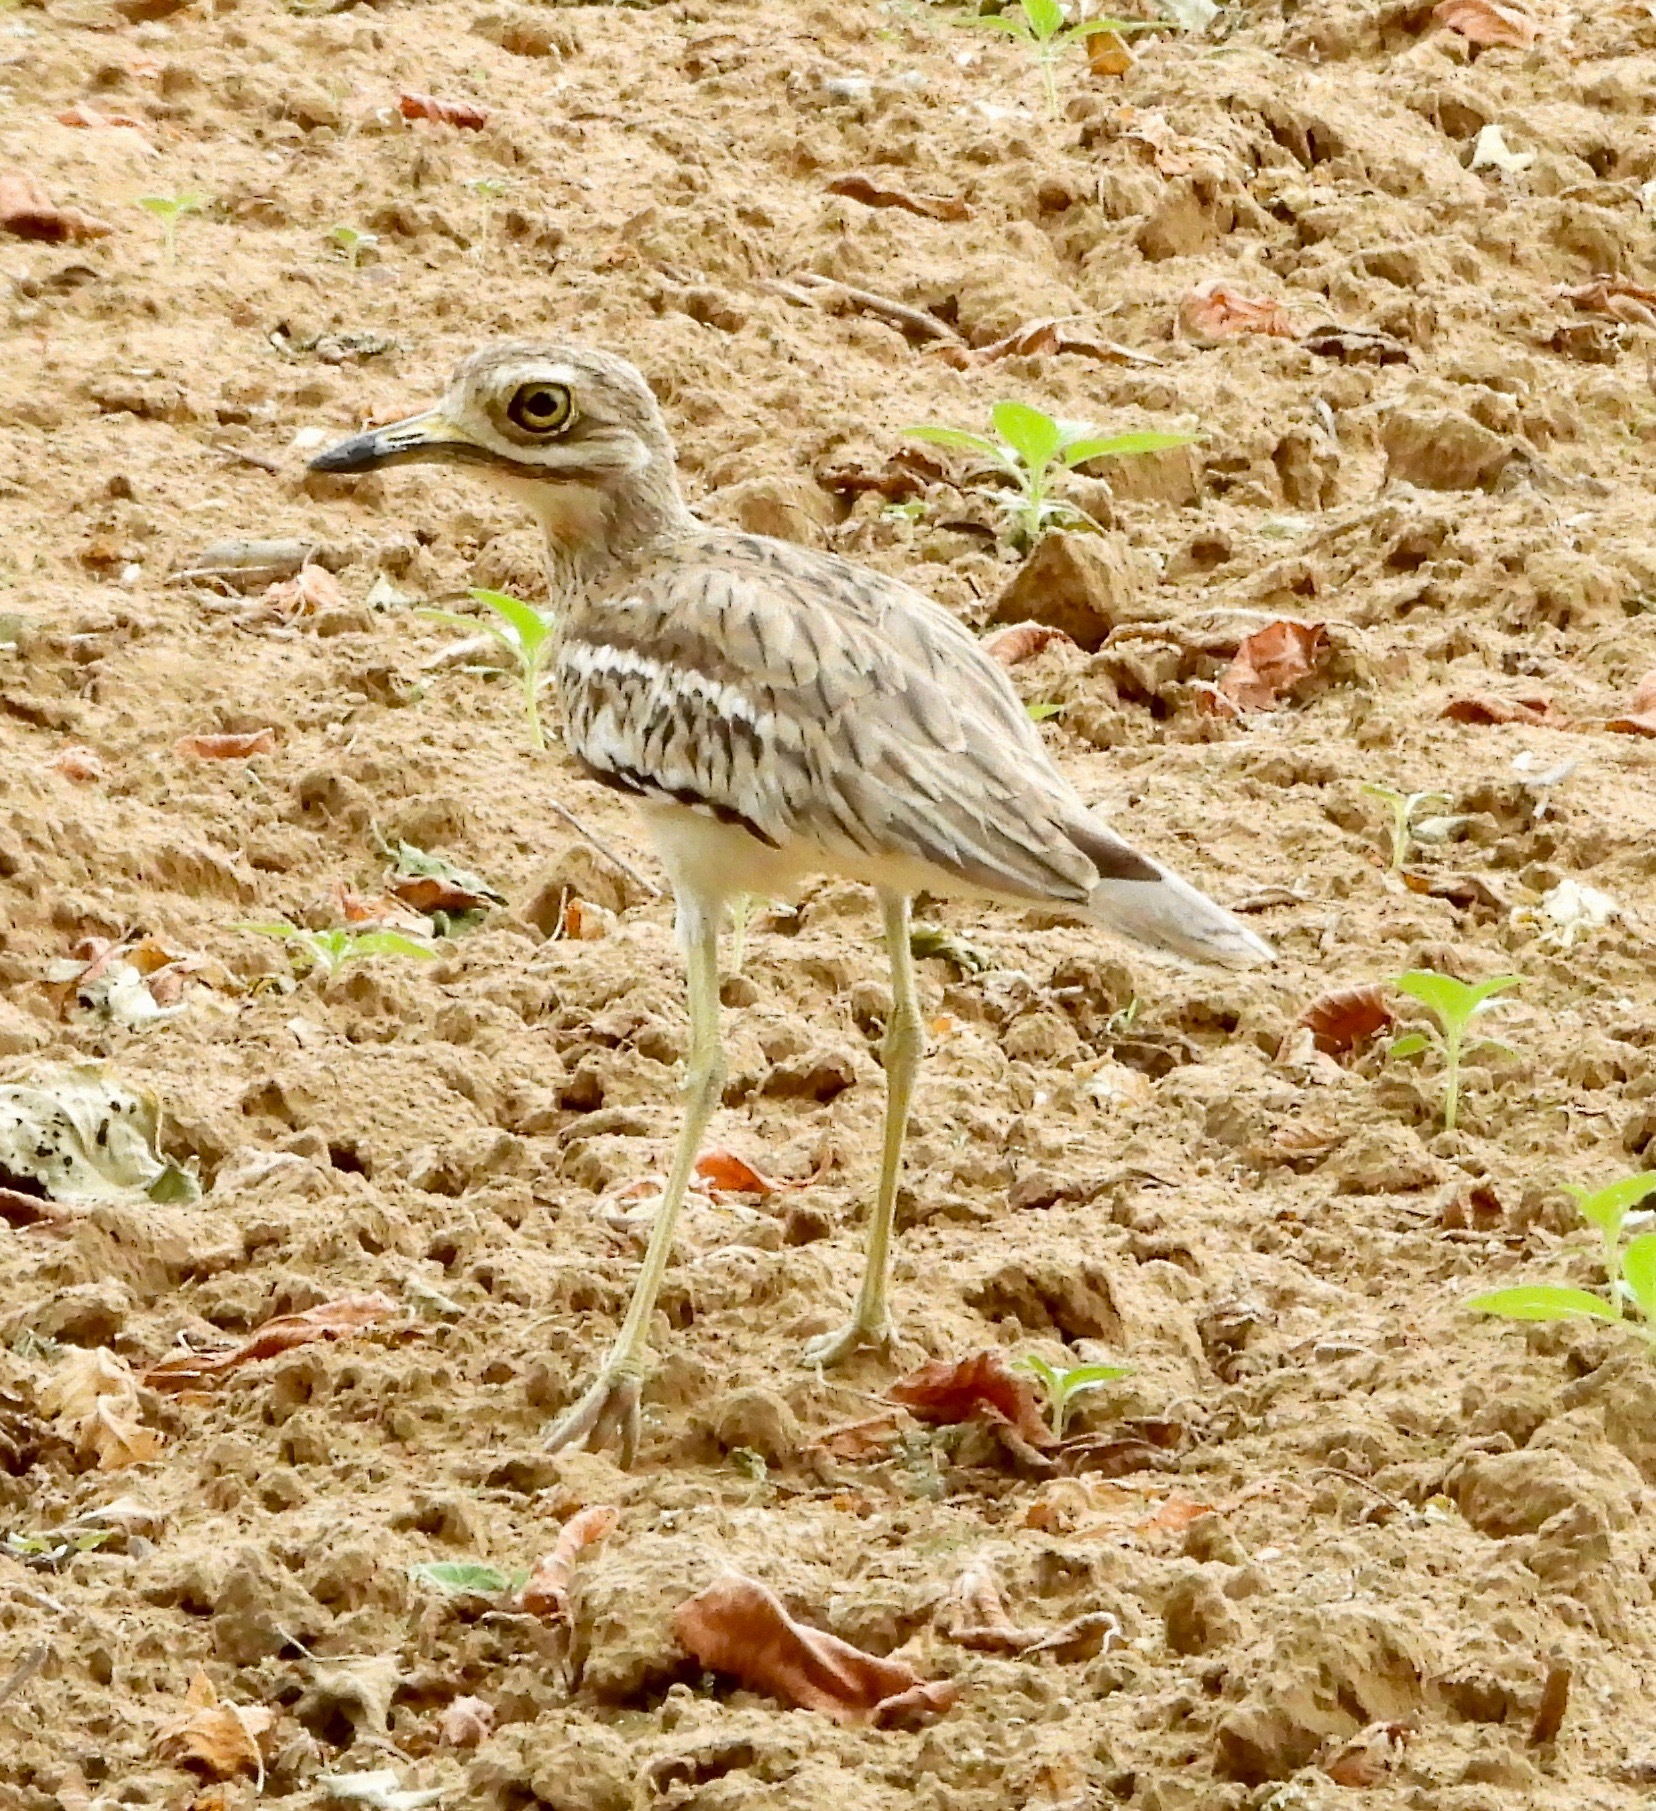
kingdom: Animalia
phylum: Chordata
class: Aves
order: Charadriiformes
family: Burhinidae
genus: Burhinus
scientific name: Burhinus indicus
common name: Indian thick-knee
